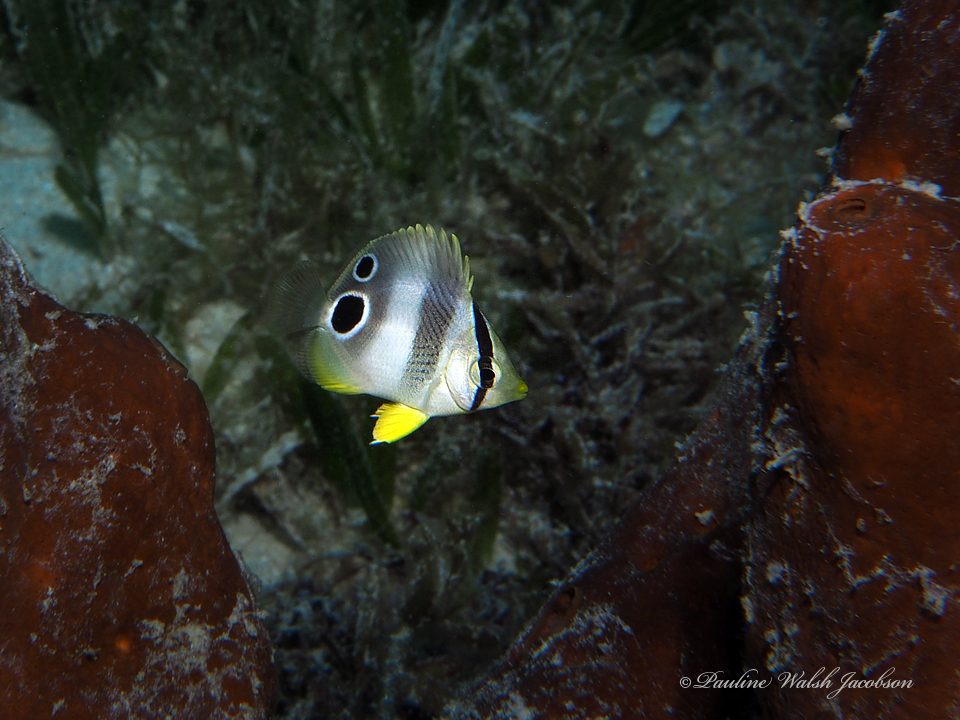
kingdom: Animalia
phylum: Chordata
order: Perciformes
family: Chaetodontidae
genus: Chaetodon
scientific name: Chaetodon capistratus
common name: Kete
